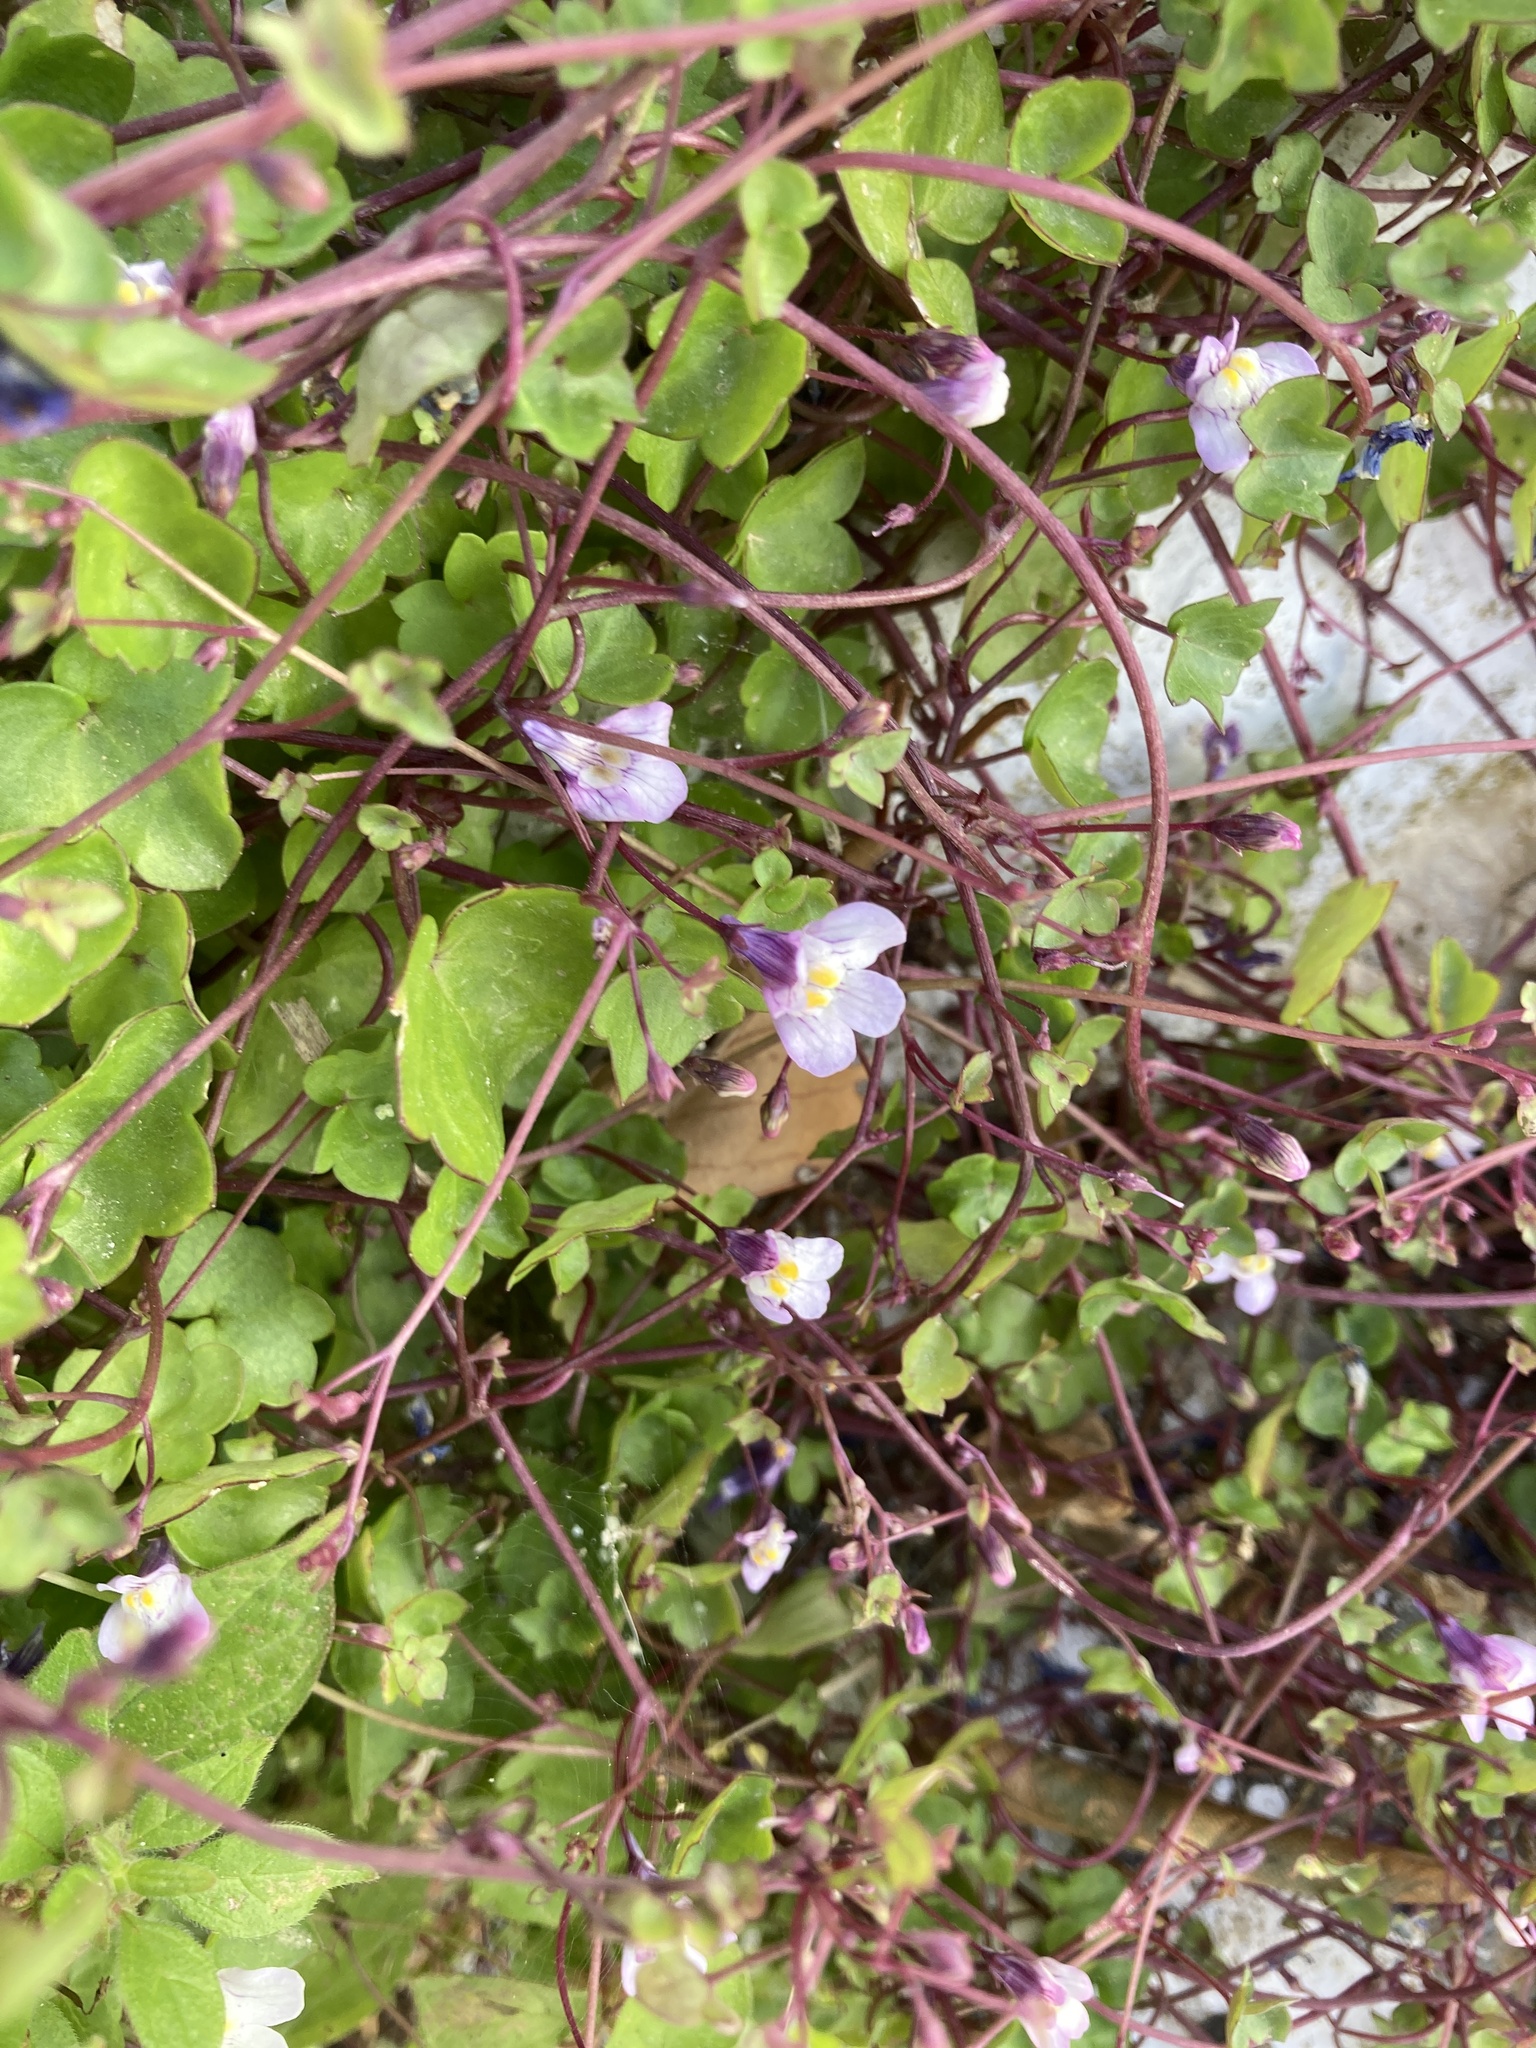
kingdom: Plantae
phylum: Tracheophyta
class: Magnoliopsida
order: Lamiales
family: Plantaginaceae
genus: Cymbalaria
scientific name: Cymbalaria muralis
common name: Ivy-leaved toadflax
